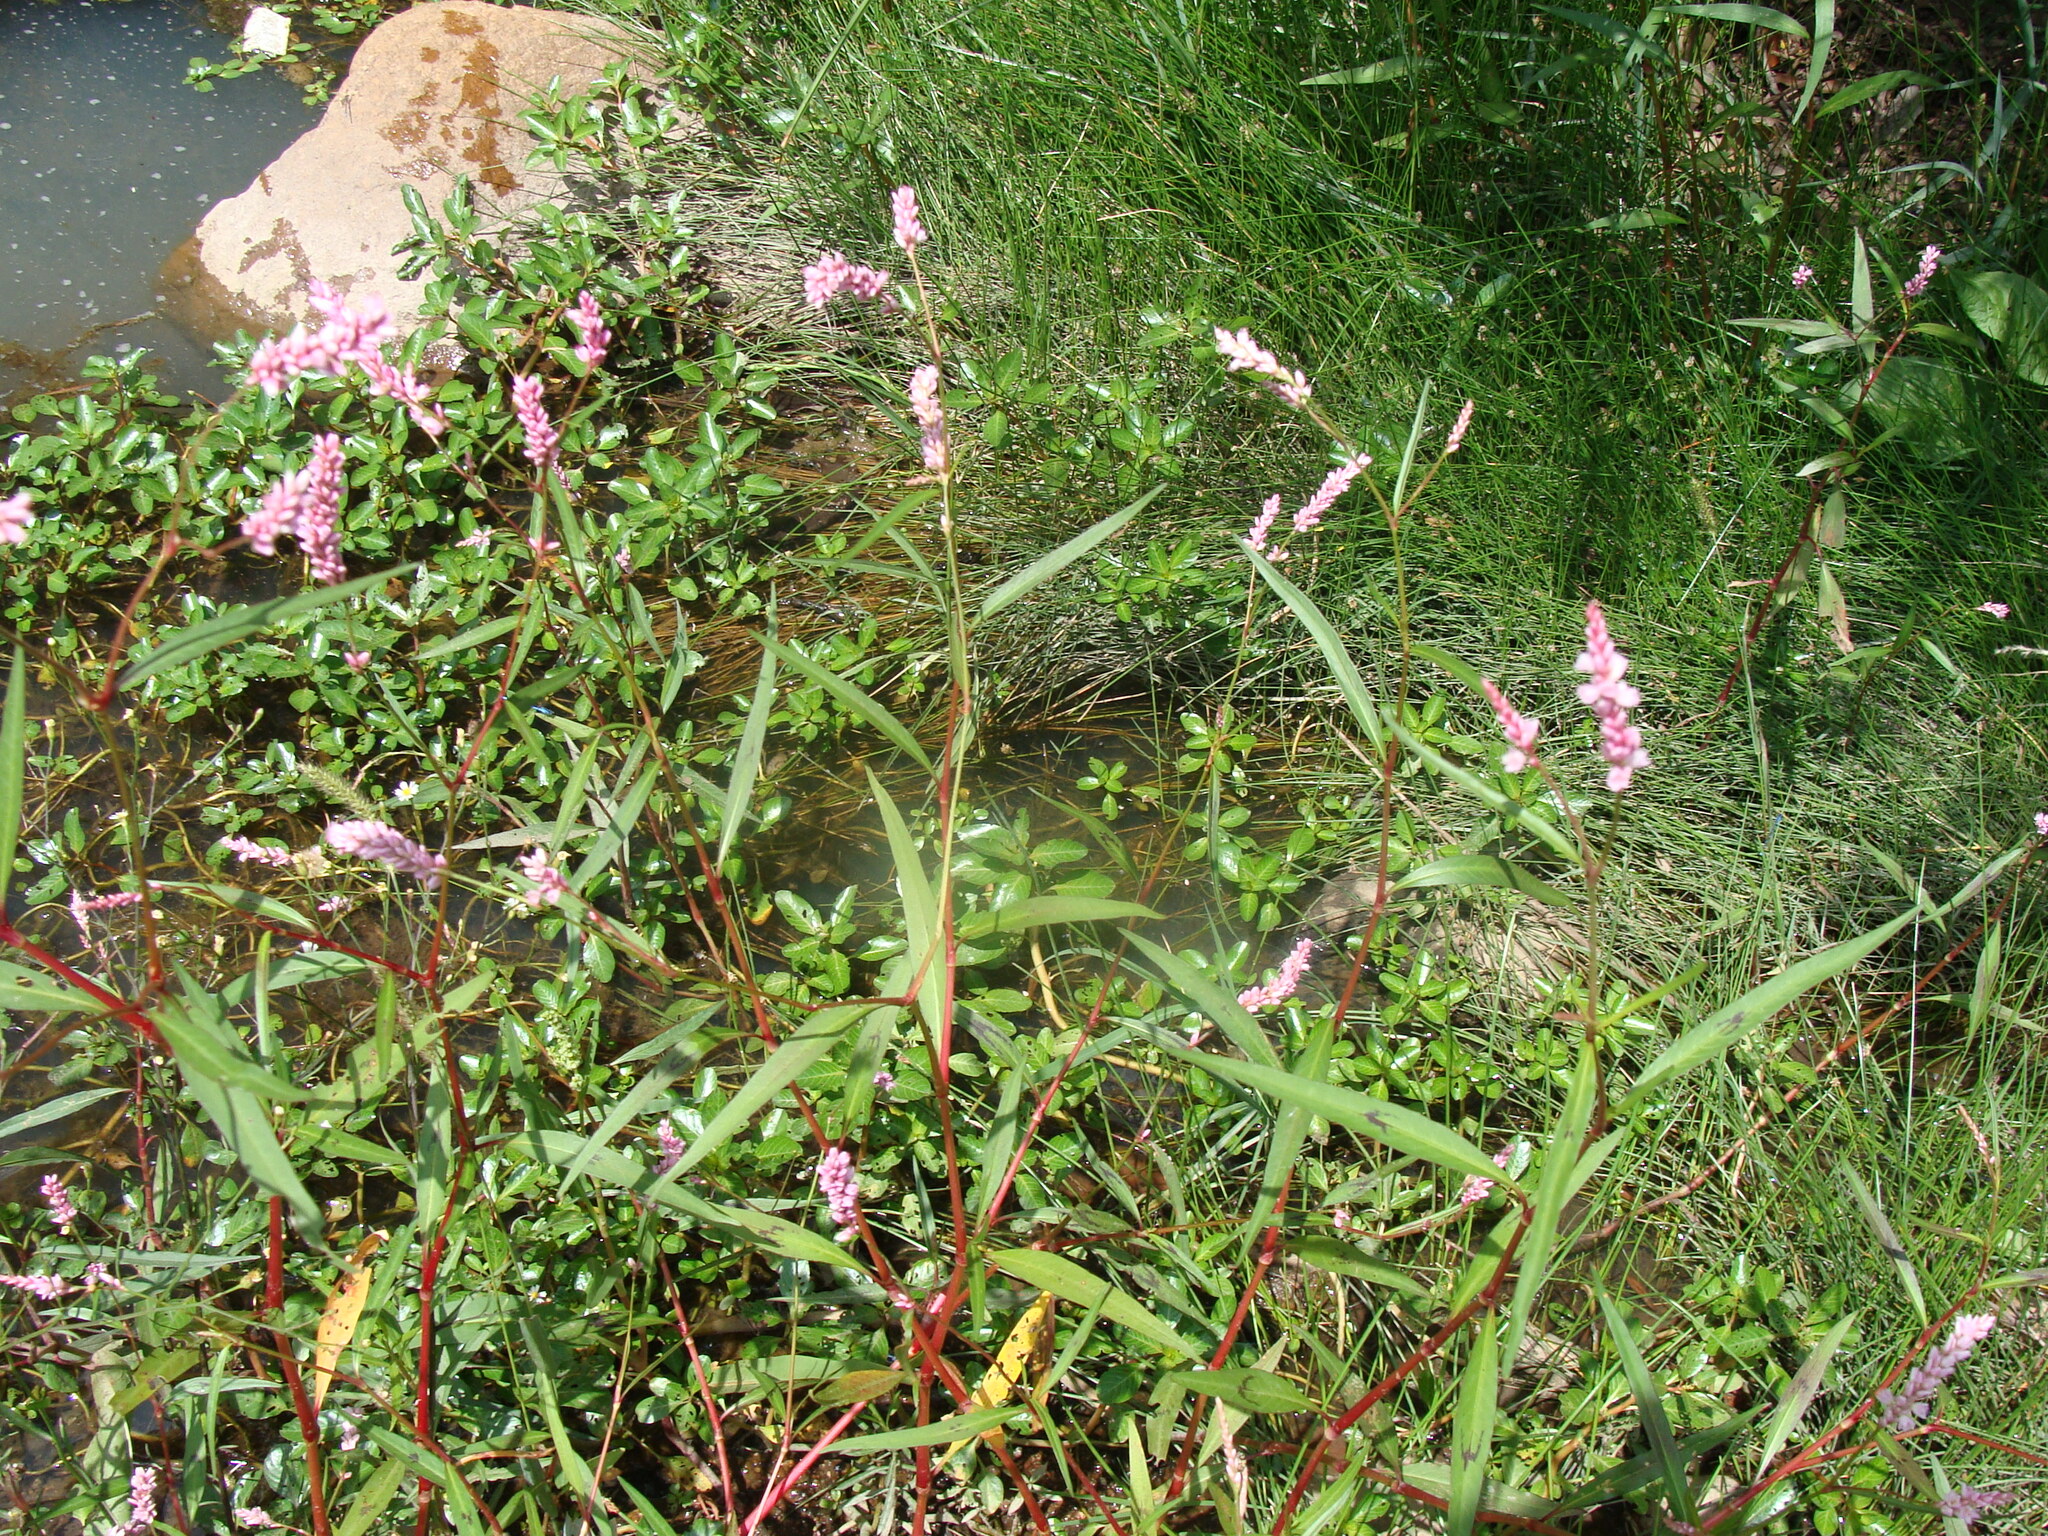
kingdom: Plantae
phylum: Tracheophyta
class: Magnoliopsida
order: Caryophyllales
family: Polygonaceae
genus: Persicaria
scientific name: Persicaria pensylvanica
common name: Pinkweed
